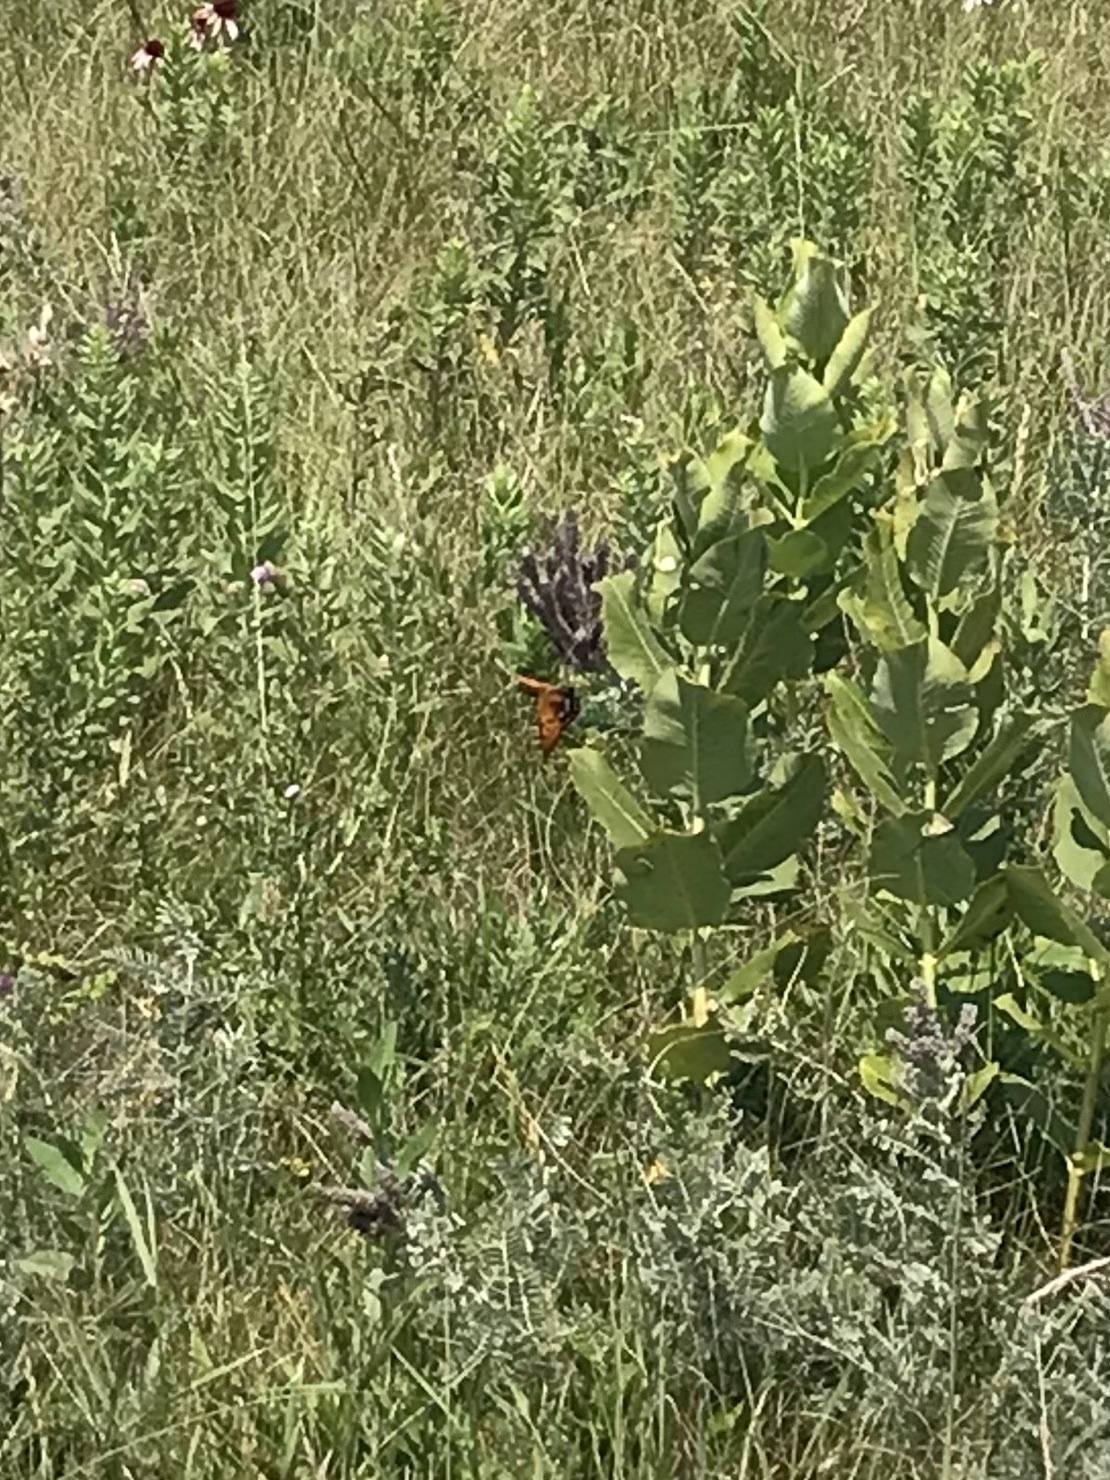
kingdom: Animalia
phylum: Arthropoda
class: Insecta
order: Lepidoptera
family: Nymphalidae
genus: Speyeria
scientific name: Speyeria idalia
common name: Regal fritillary
